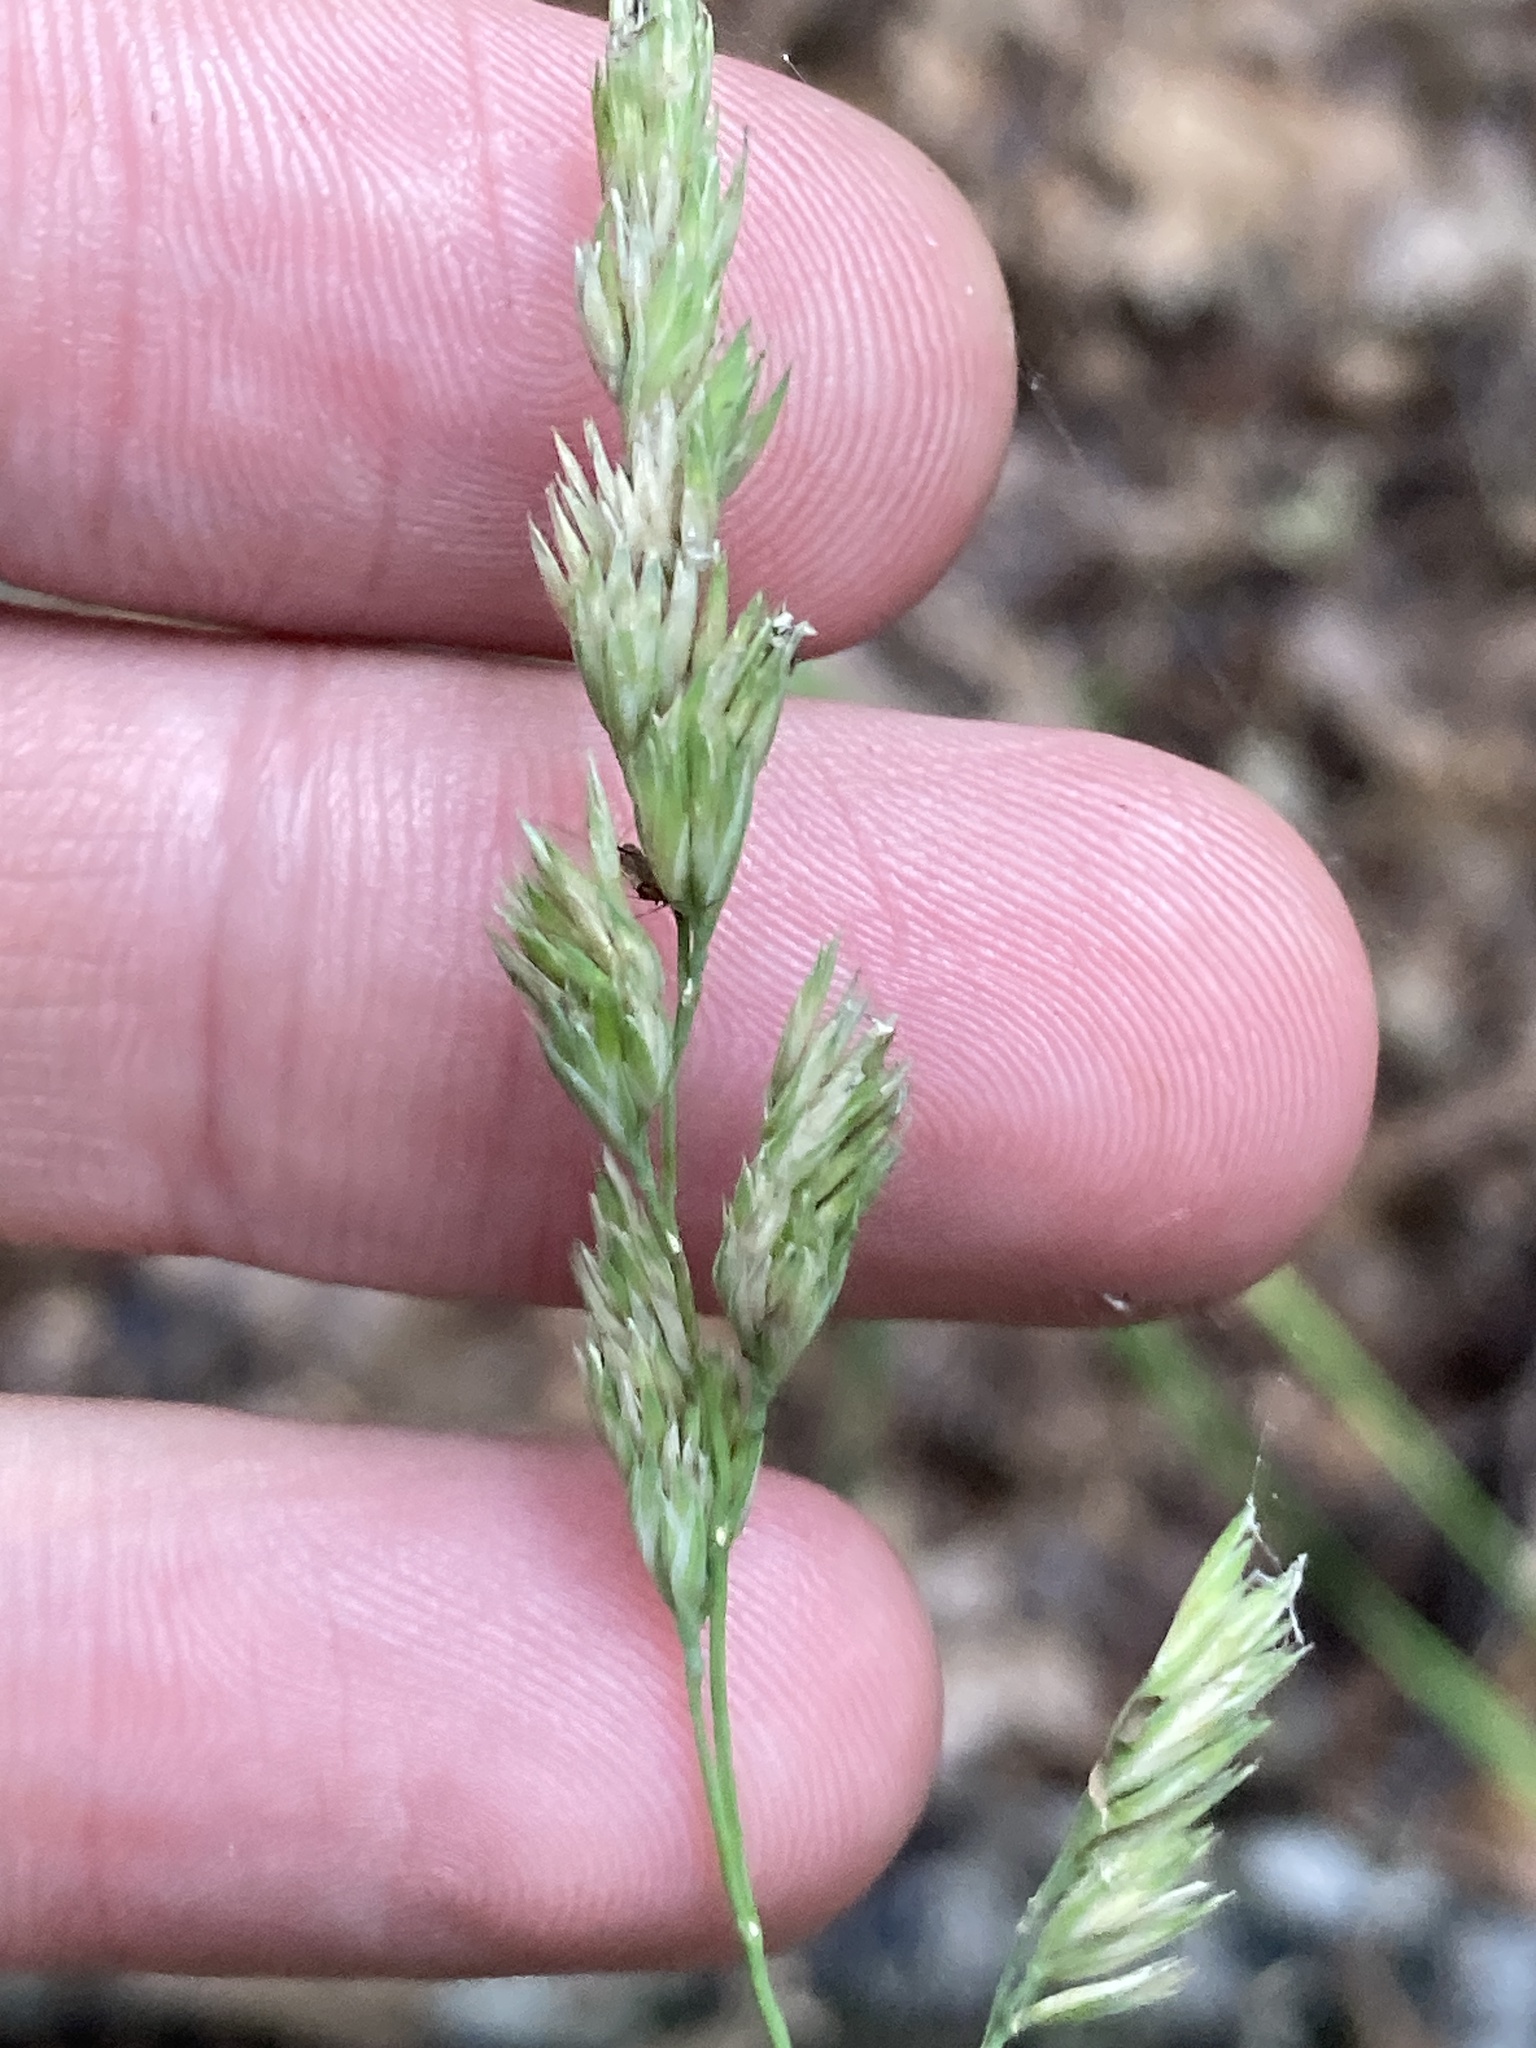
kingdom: Plantae
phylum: Tracheophyta
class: Liliopsida
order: Poales
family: Poaceae
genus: Dactylis
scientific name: Dactylis glomerata
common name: Orchardgrass
